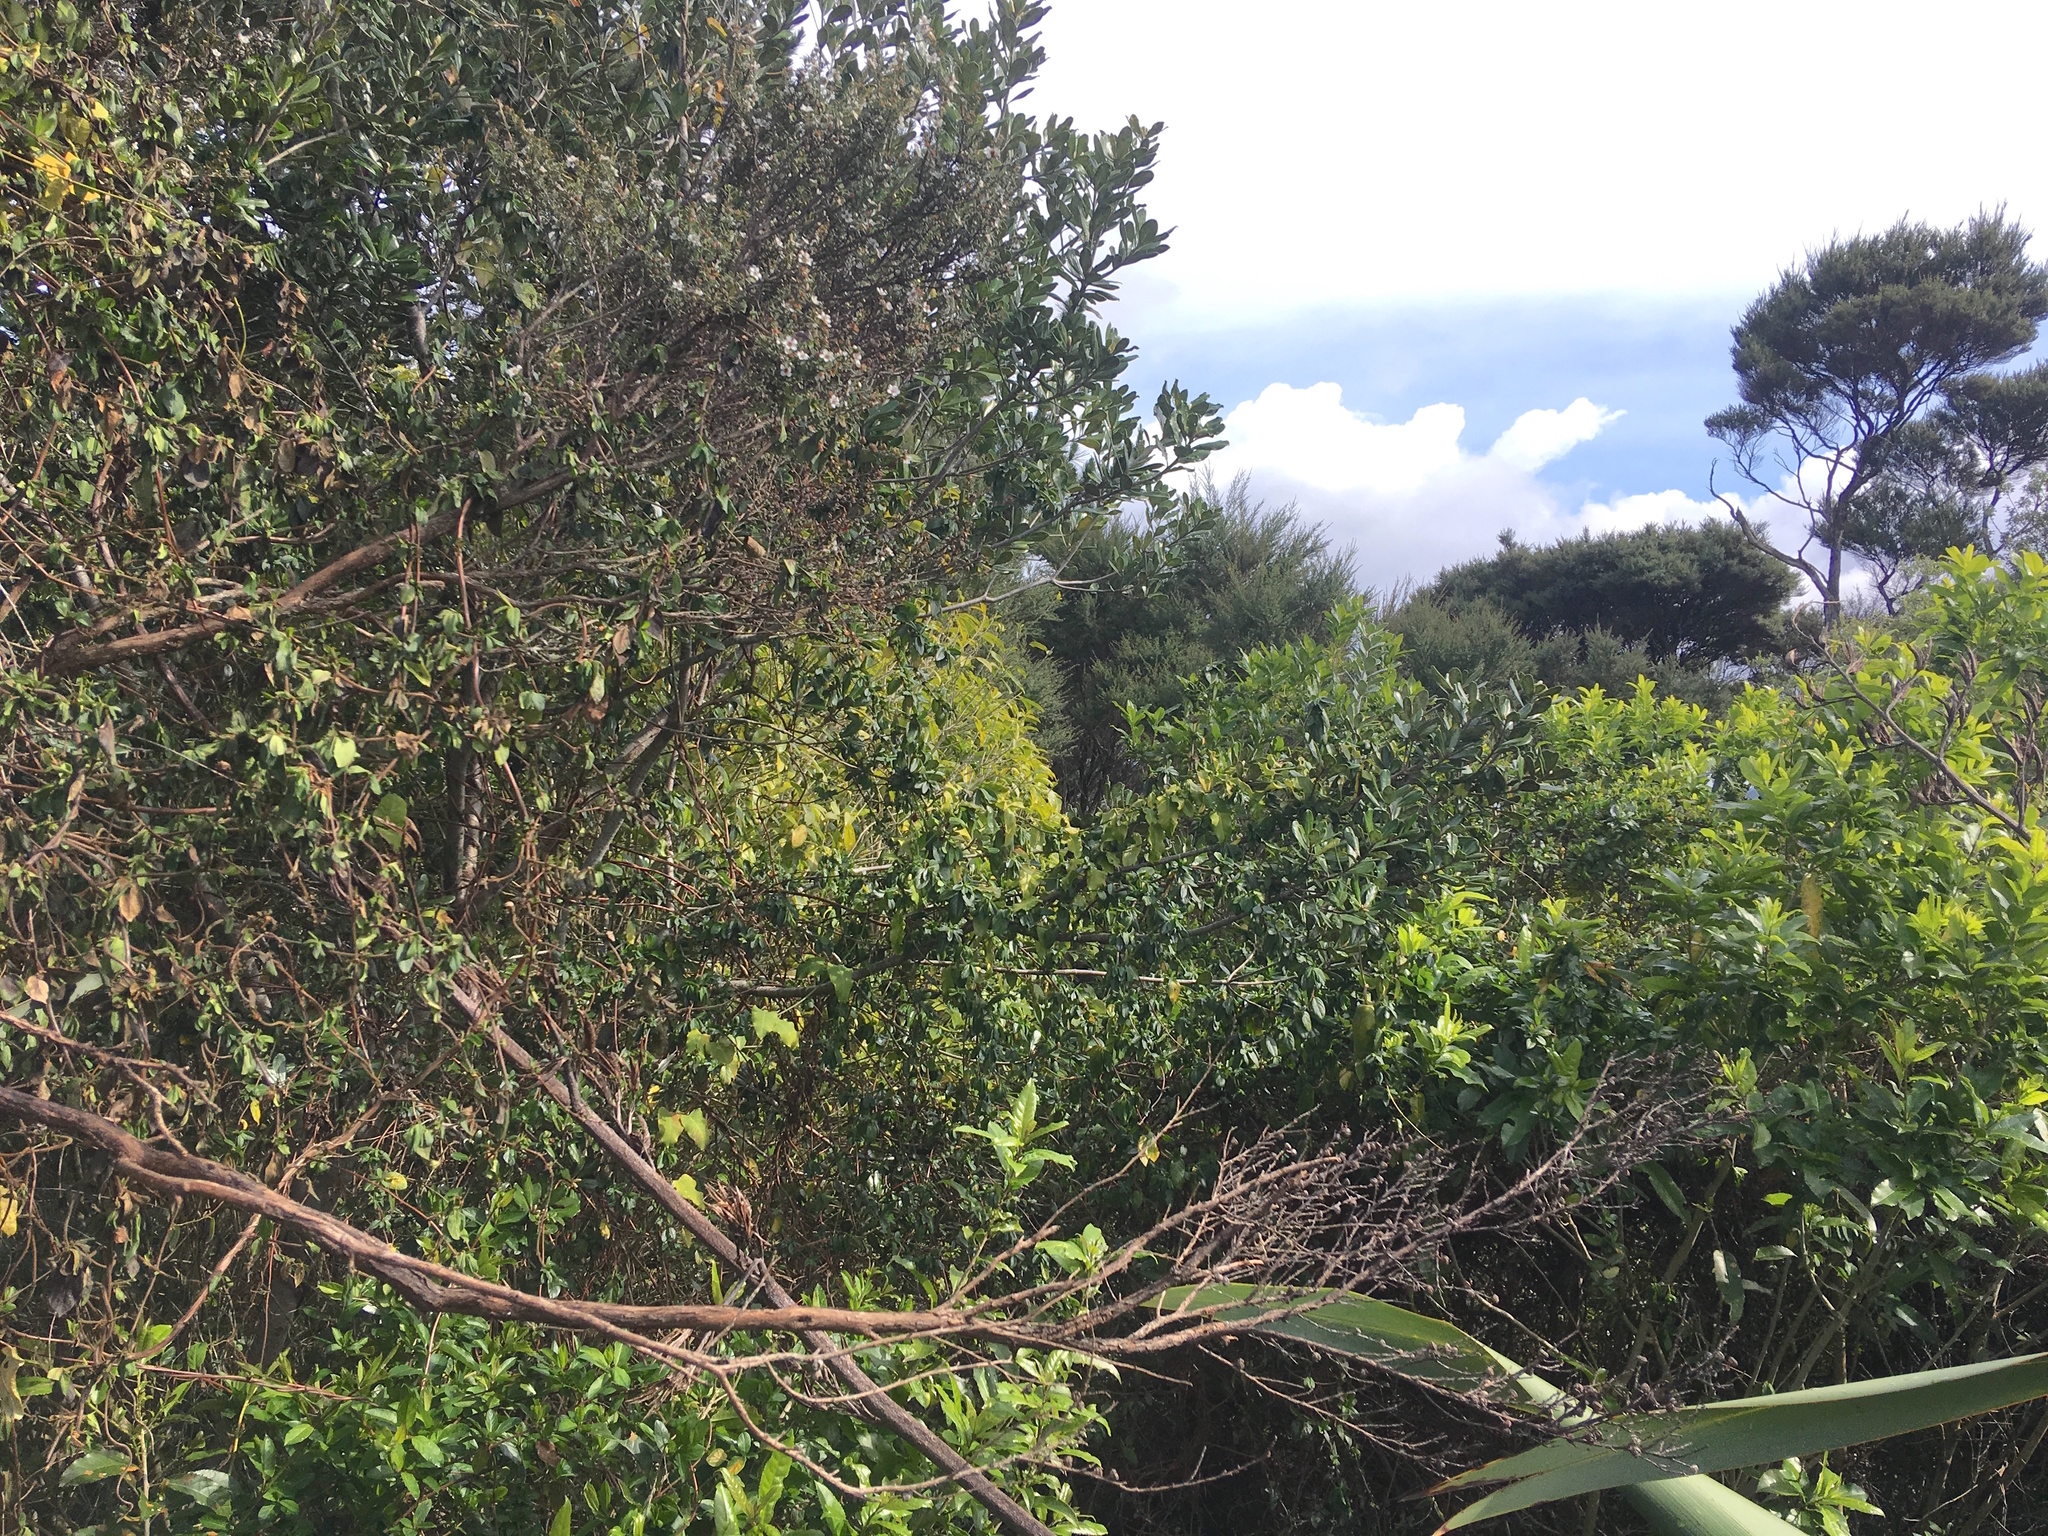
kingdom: Plantae
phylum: Tracheophyta
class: Magnoliopsida
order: Myrtales
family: Myrtaceae
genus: Metrosideros
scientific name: Metrosideros excelsa
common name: New zealand christmastree
